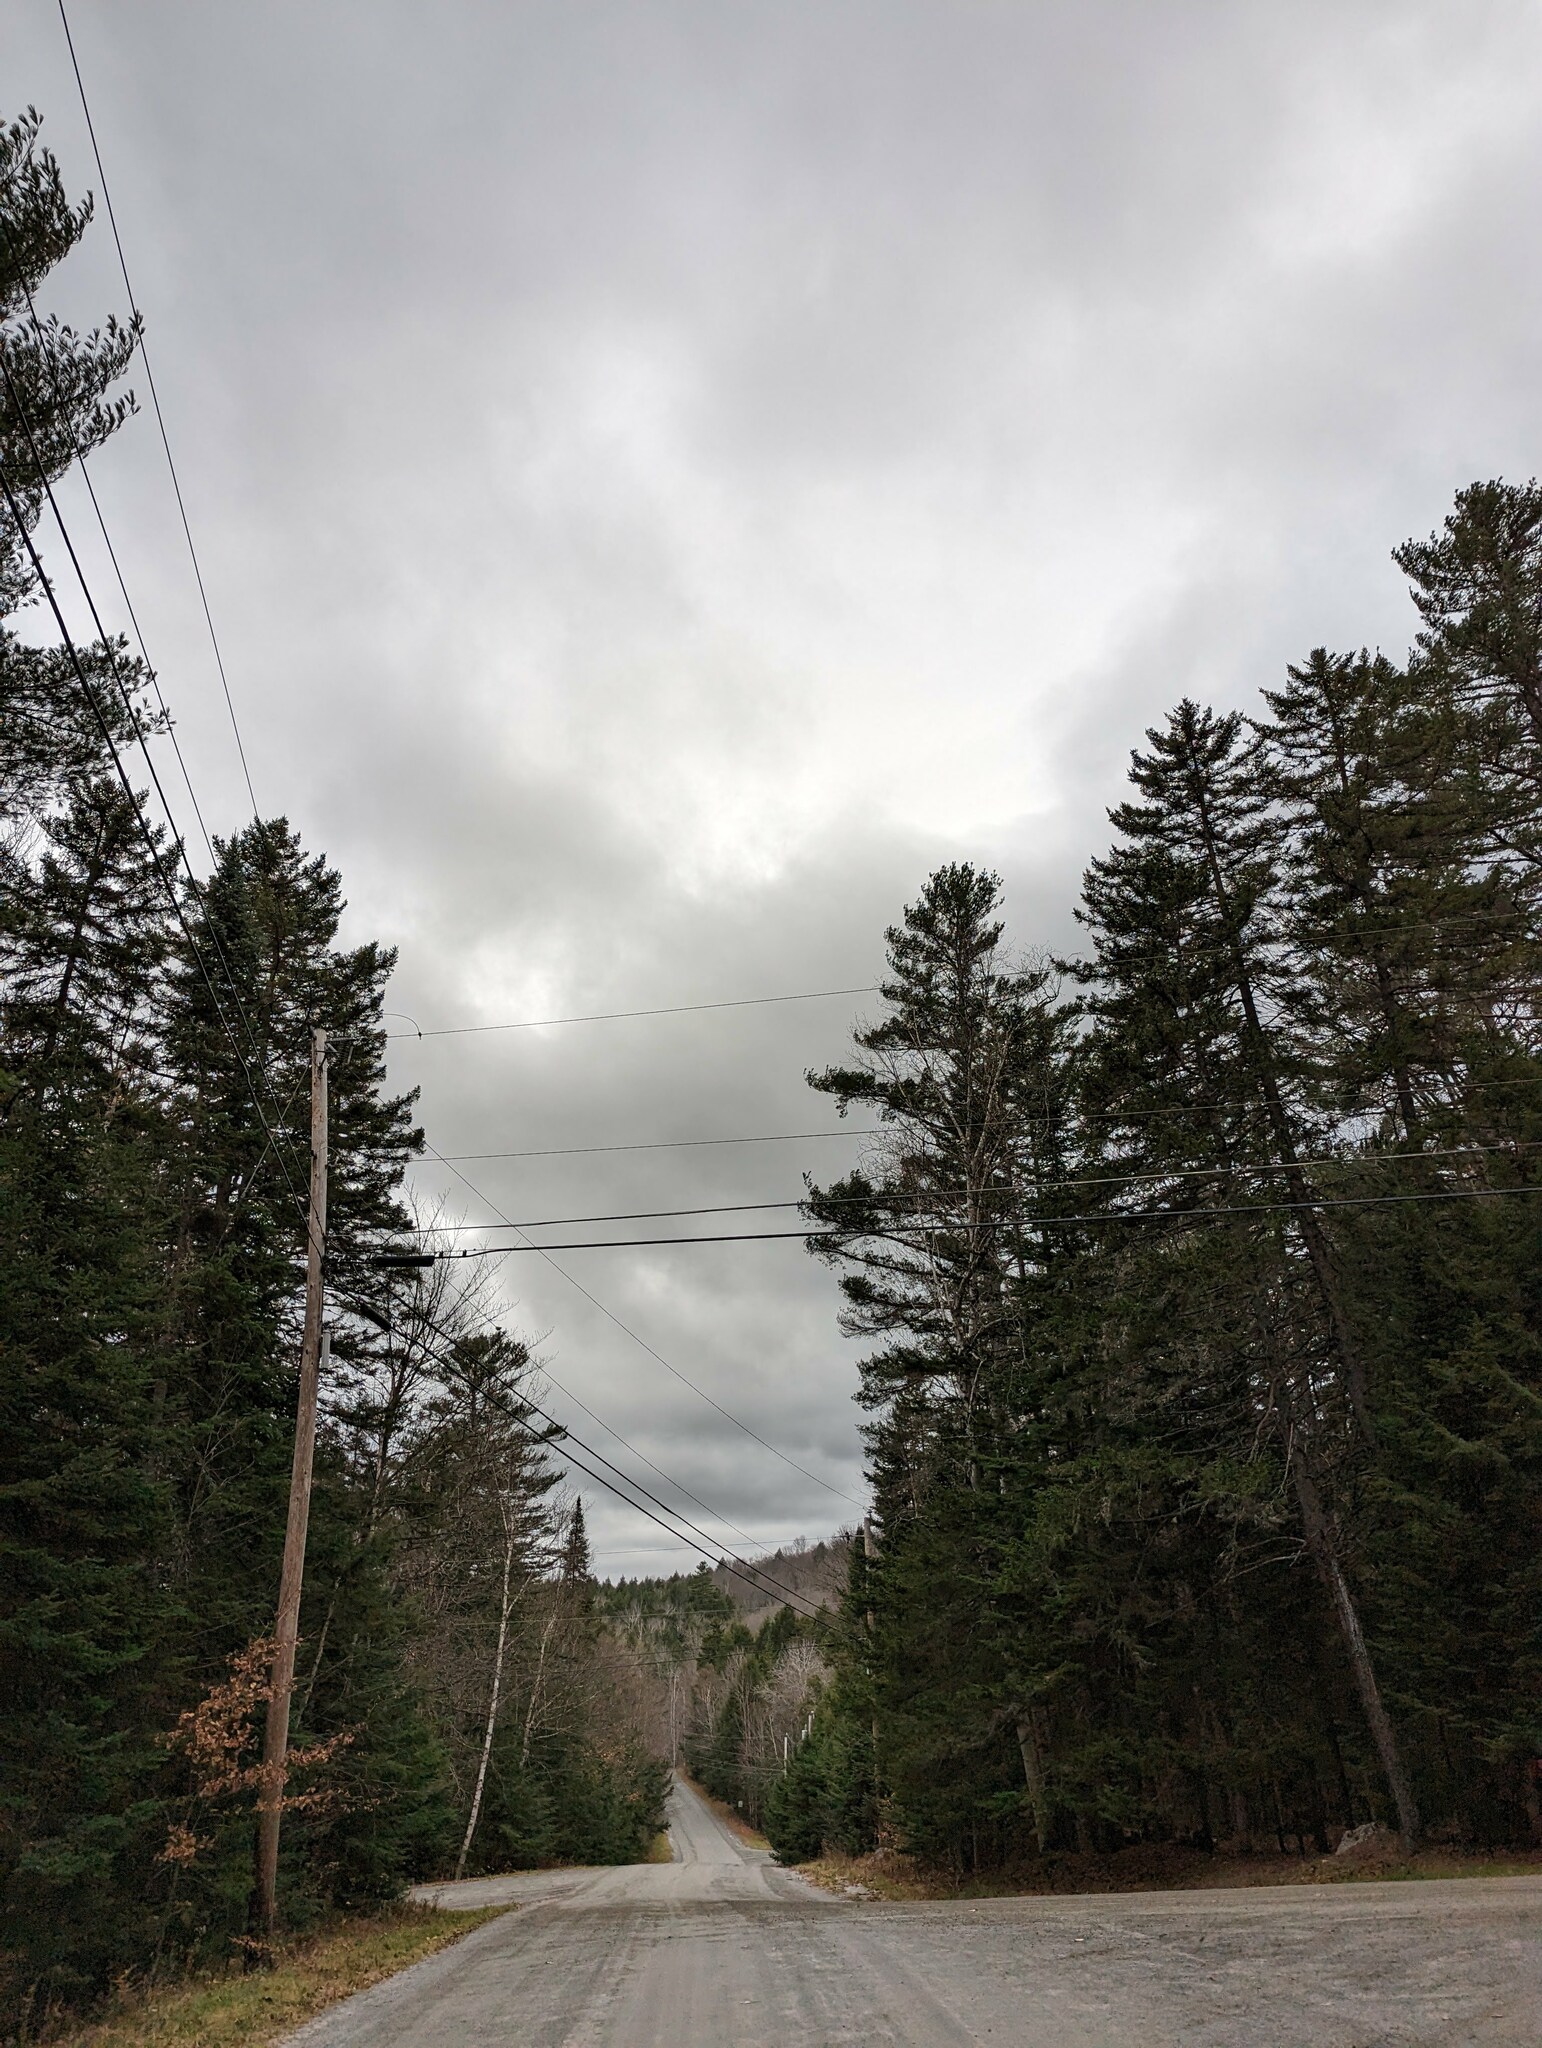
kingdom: Plantae
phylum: Tracheophyta
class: Pinopsida
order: Pinales
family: Pinaceae
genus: Pinus
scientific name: Pinus strobus
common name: Weymouth pine
